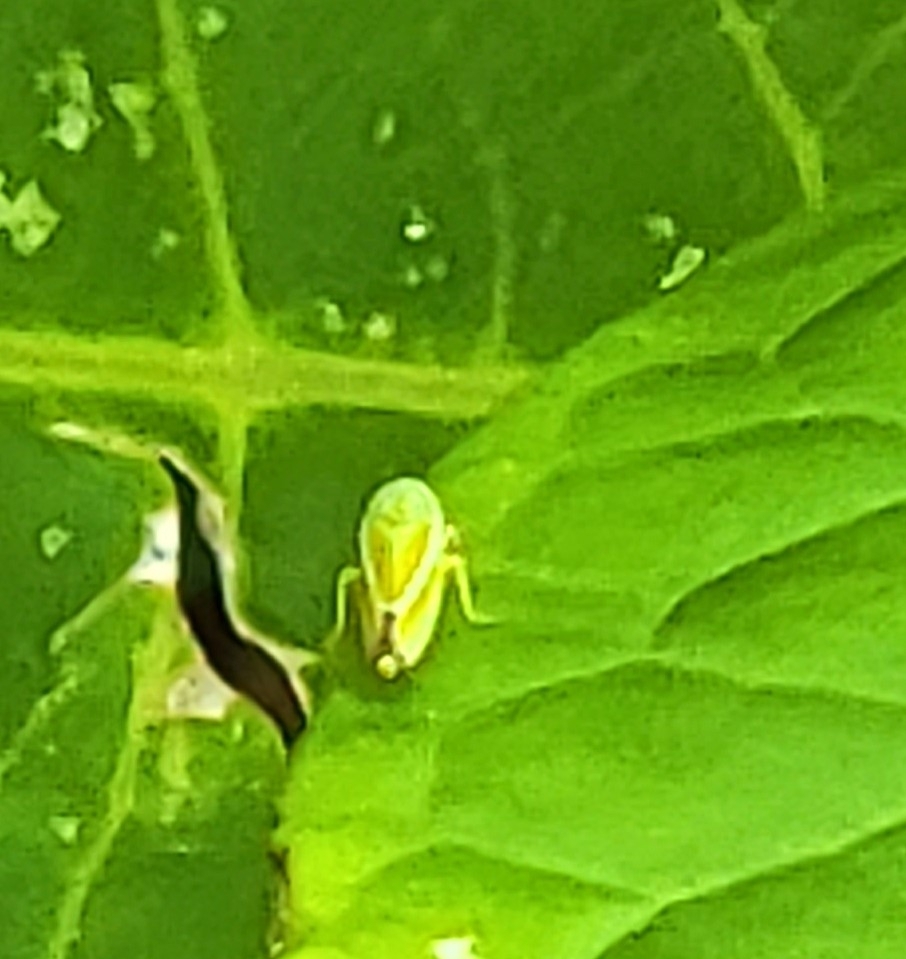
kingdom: Animalia
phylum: Arthropoda
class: Insecta
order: Hemiptera
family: Cicadellidae
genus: Graphocephala
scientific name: Graphocephala versuta
